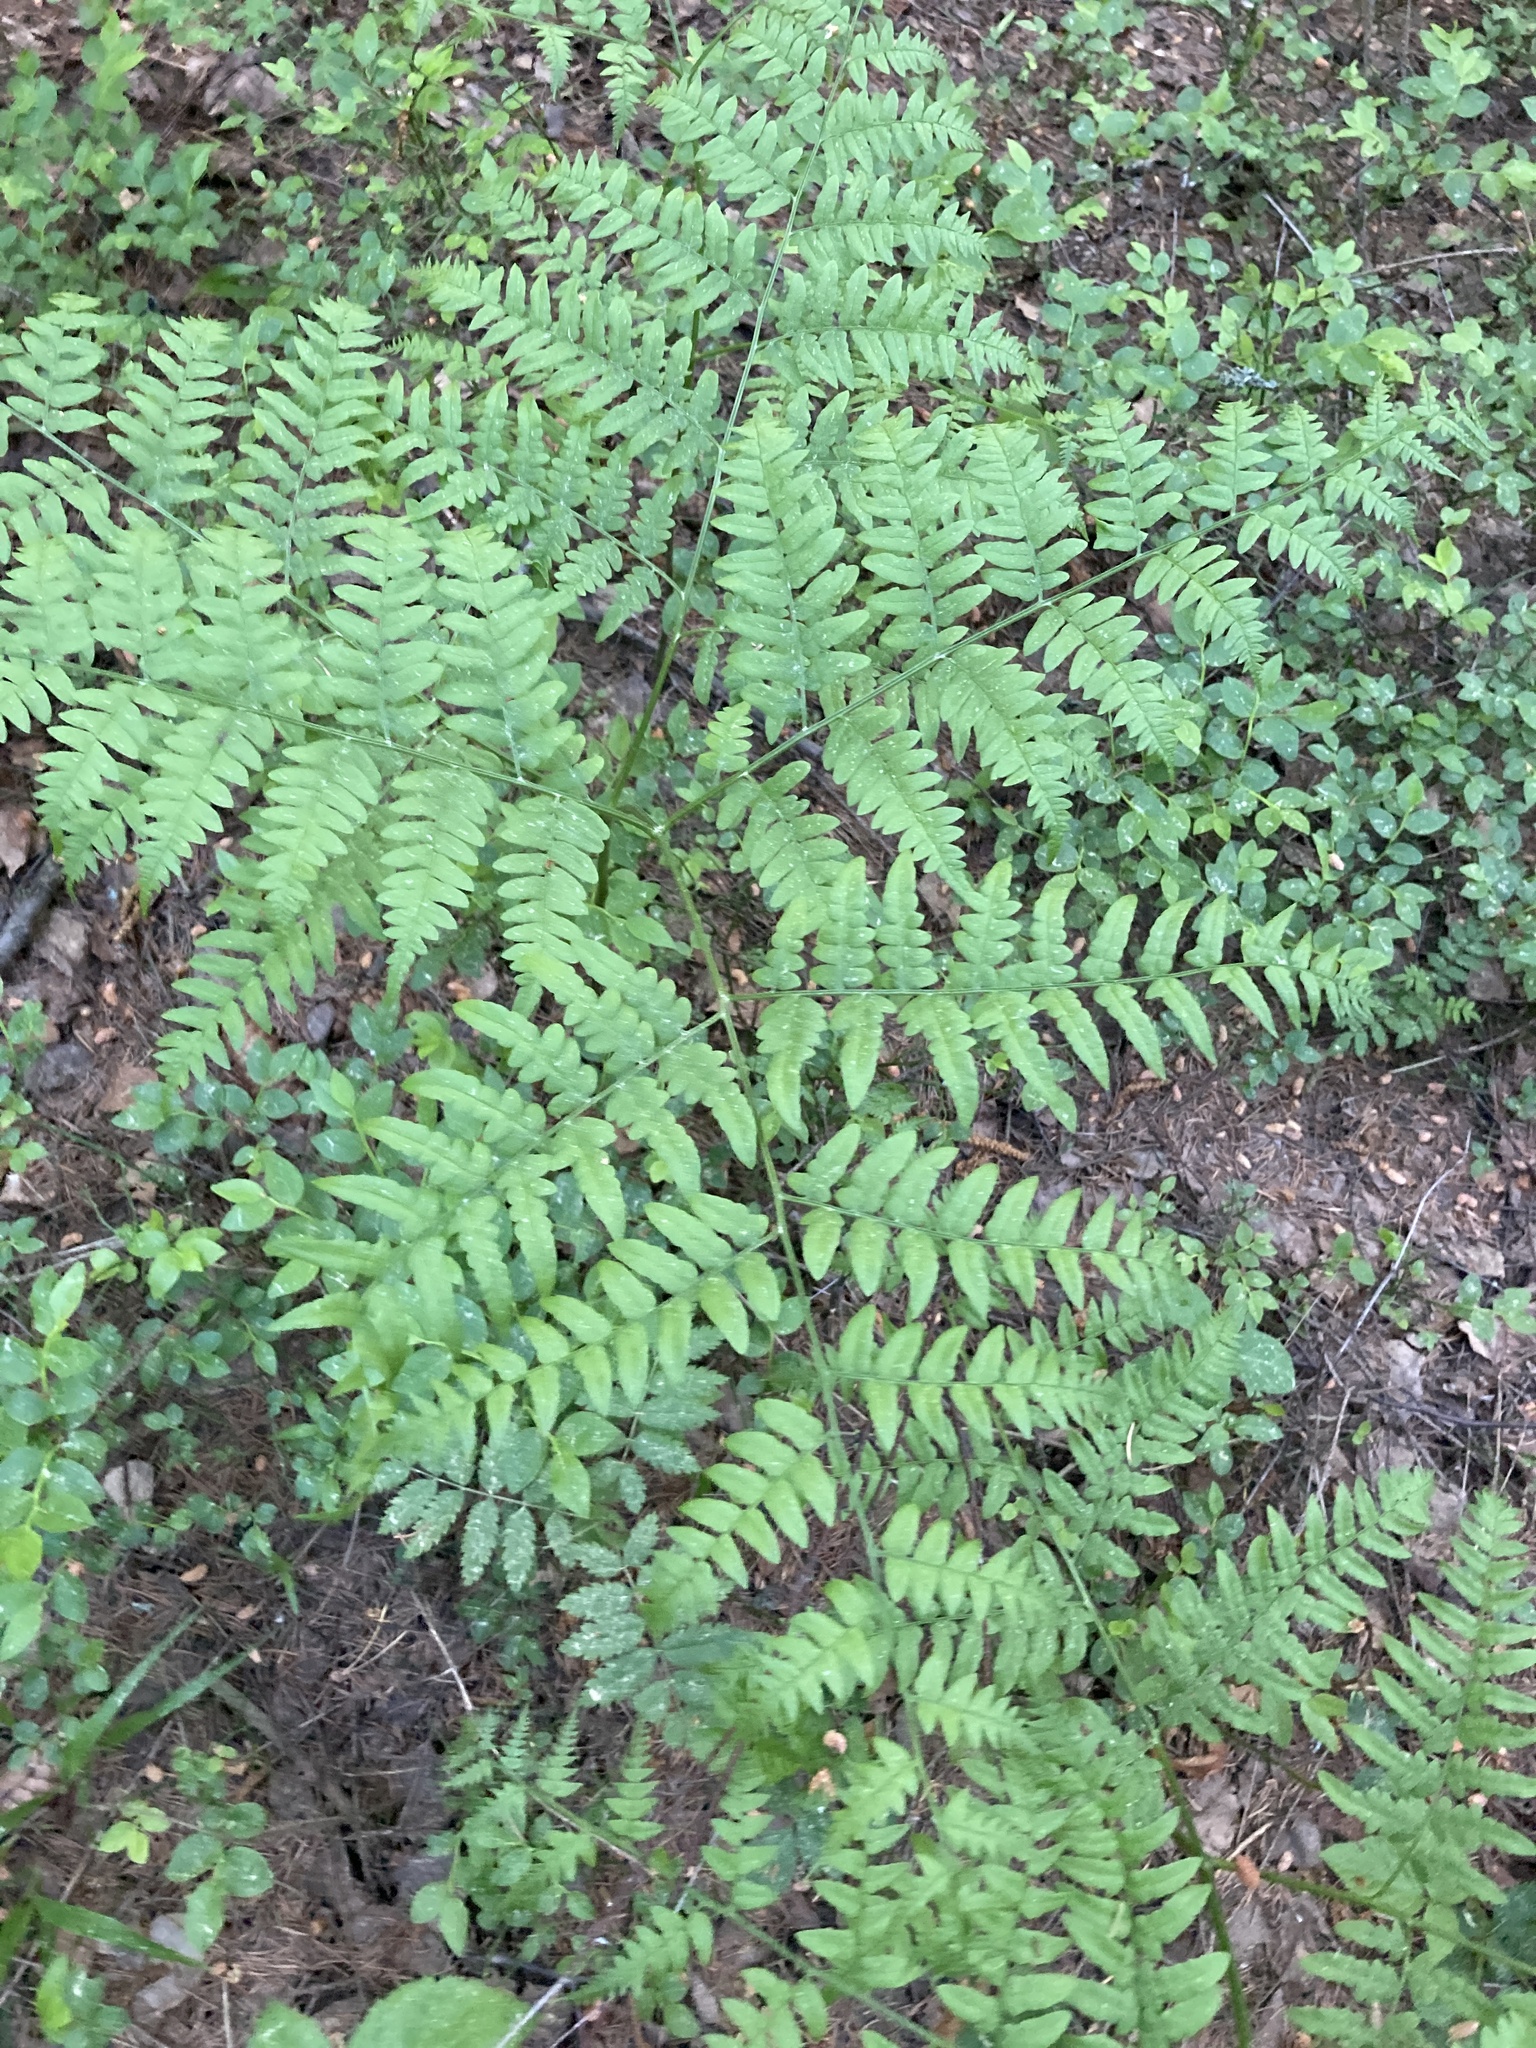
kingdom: Plantae
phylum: Tracheophyta
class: Polypodiopsida
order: Polypodiales
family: Dennstaedtiaceae
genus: Pteridium
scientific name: Pteridium aquilinum
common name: Bracken
